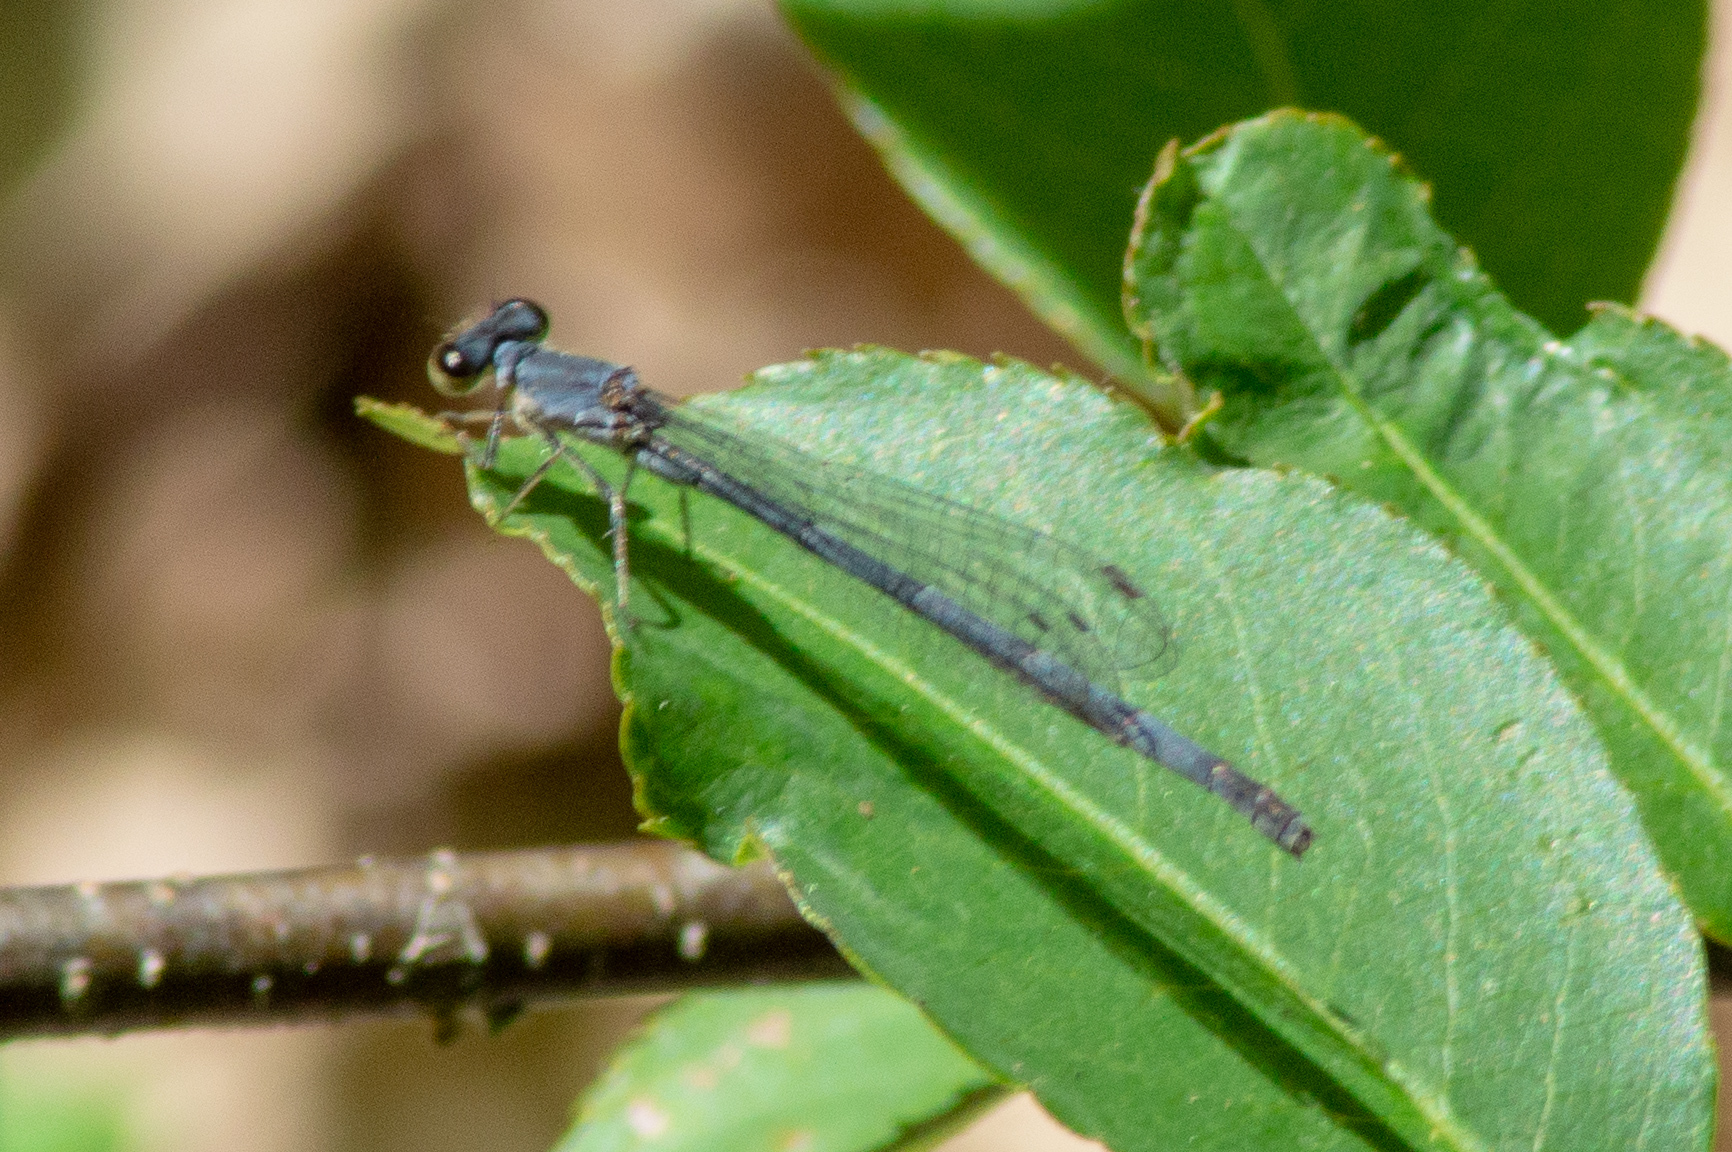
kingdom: Animalia
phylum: Arthropoda
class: Insecta
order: Odonata
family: Coenagrionidae
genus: Ischnura
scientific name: Ischnura verticalis
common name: Eastern forktail
